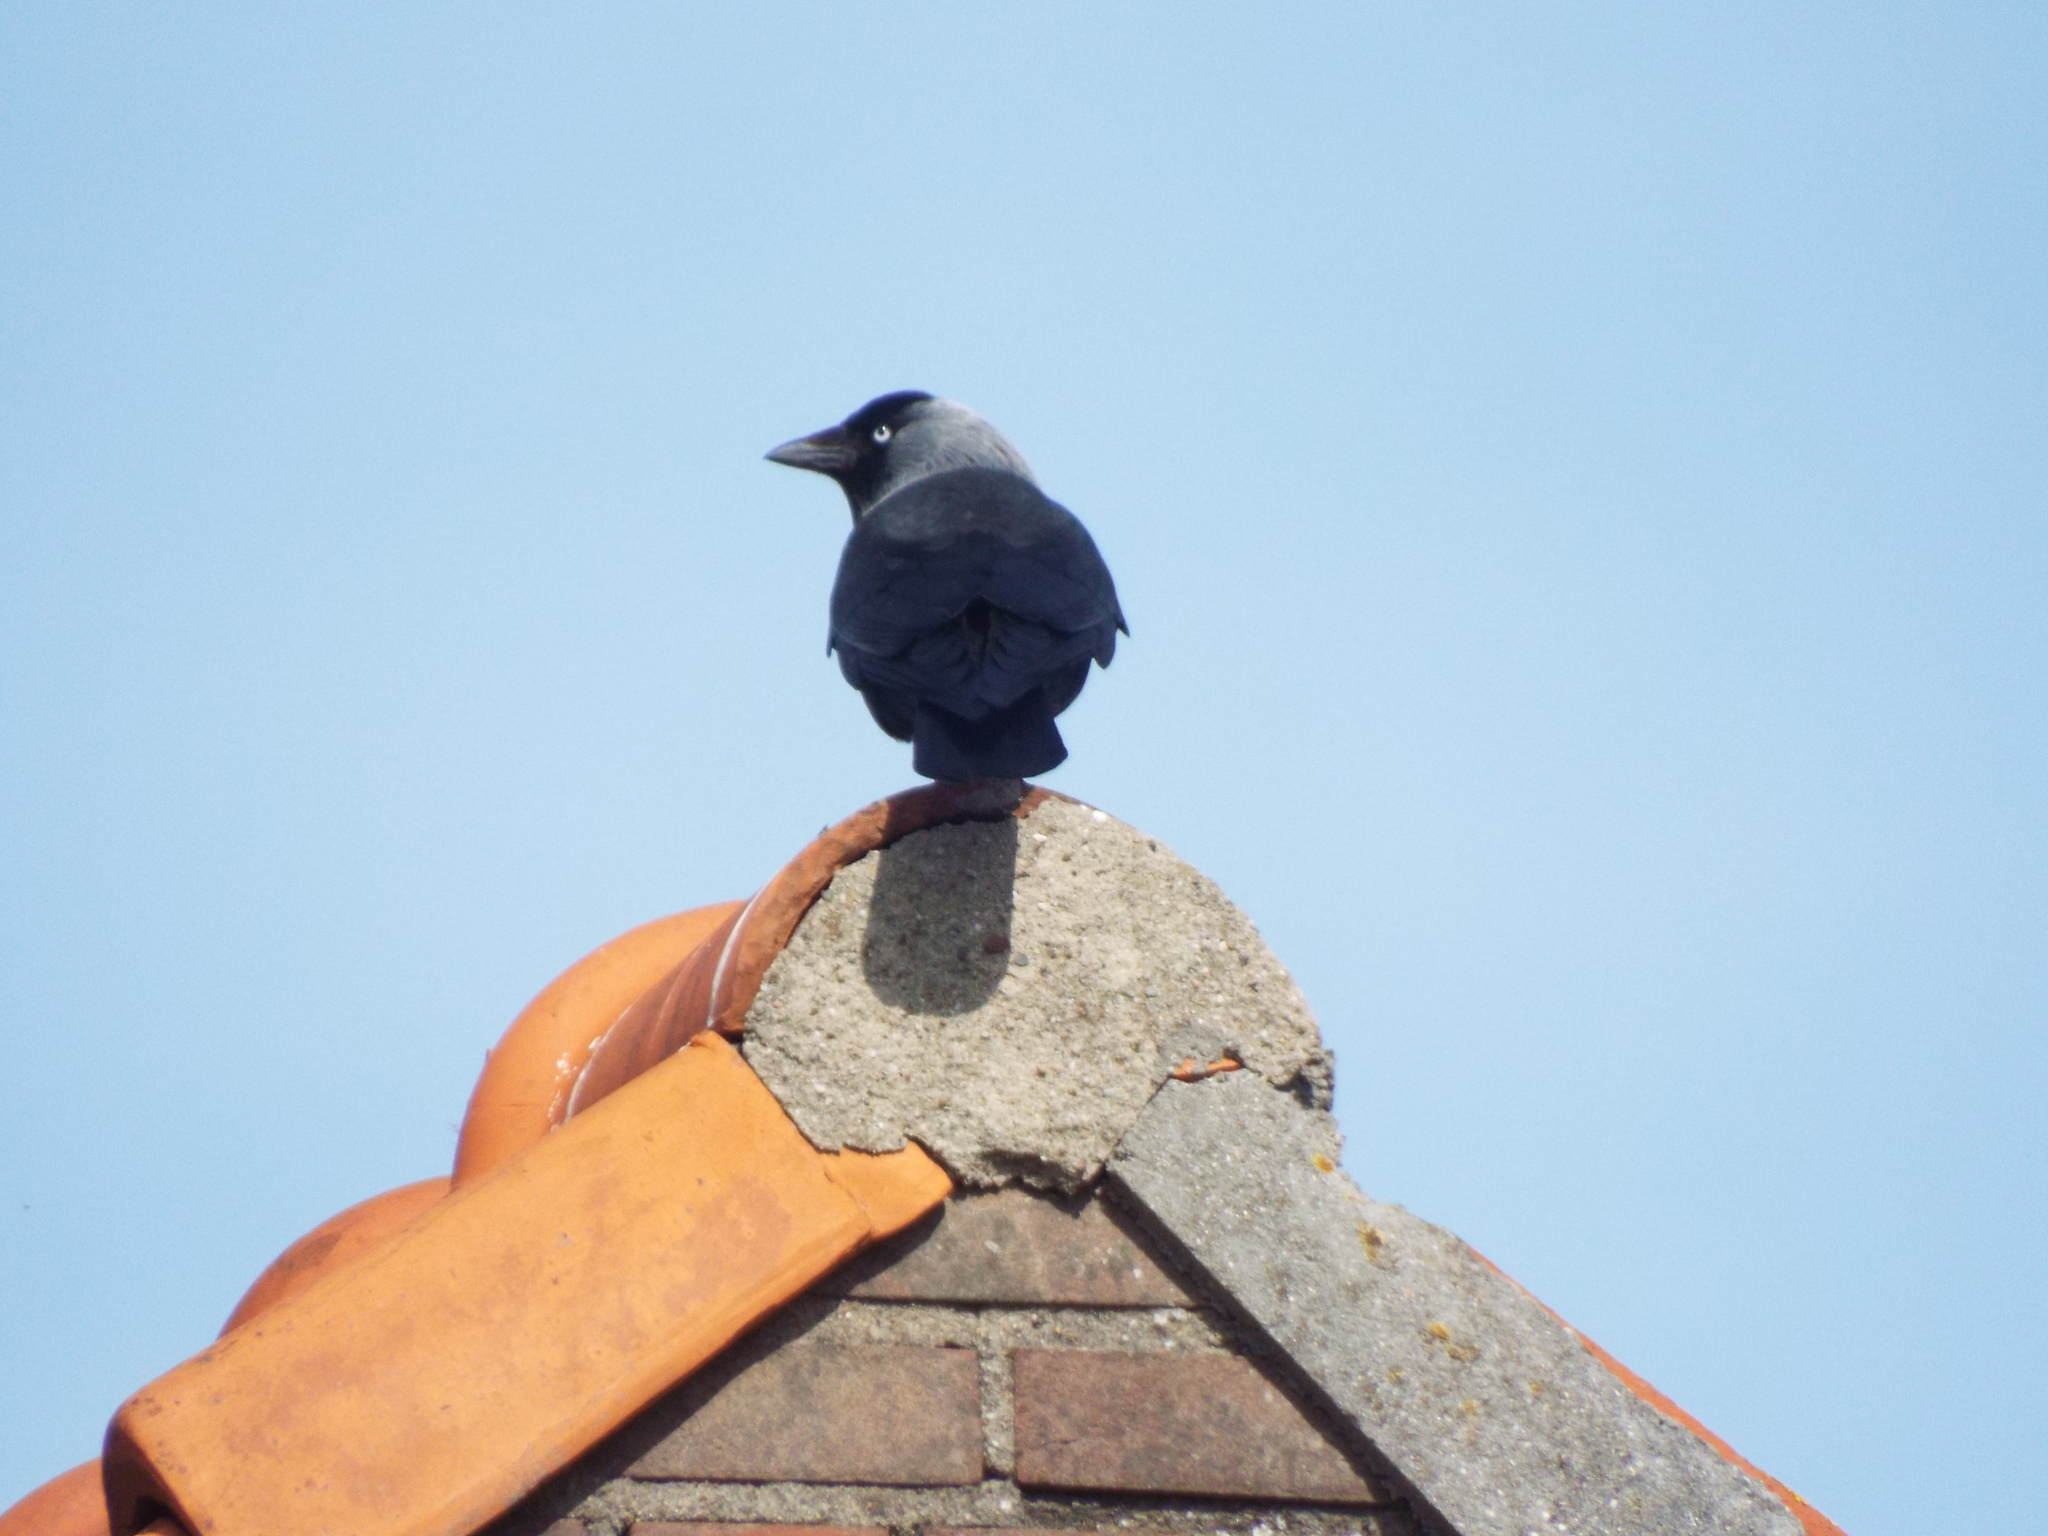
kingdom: Animalia
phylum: Chordata
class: Aves
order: Passeriformes
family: Corvidae
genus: Coloeus
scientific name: Coloeus monedula
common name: Western jackdaw
